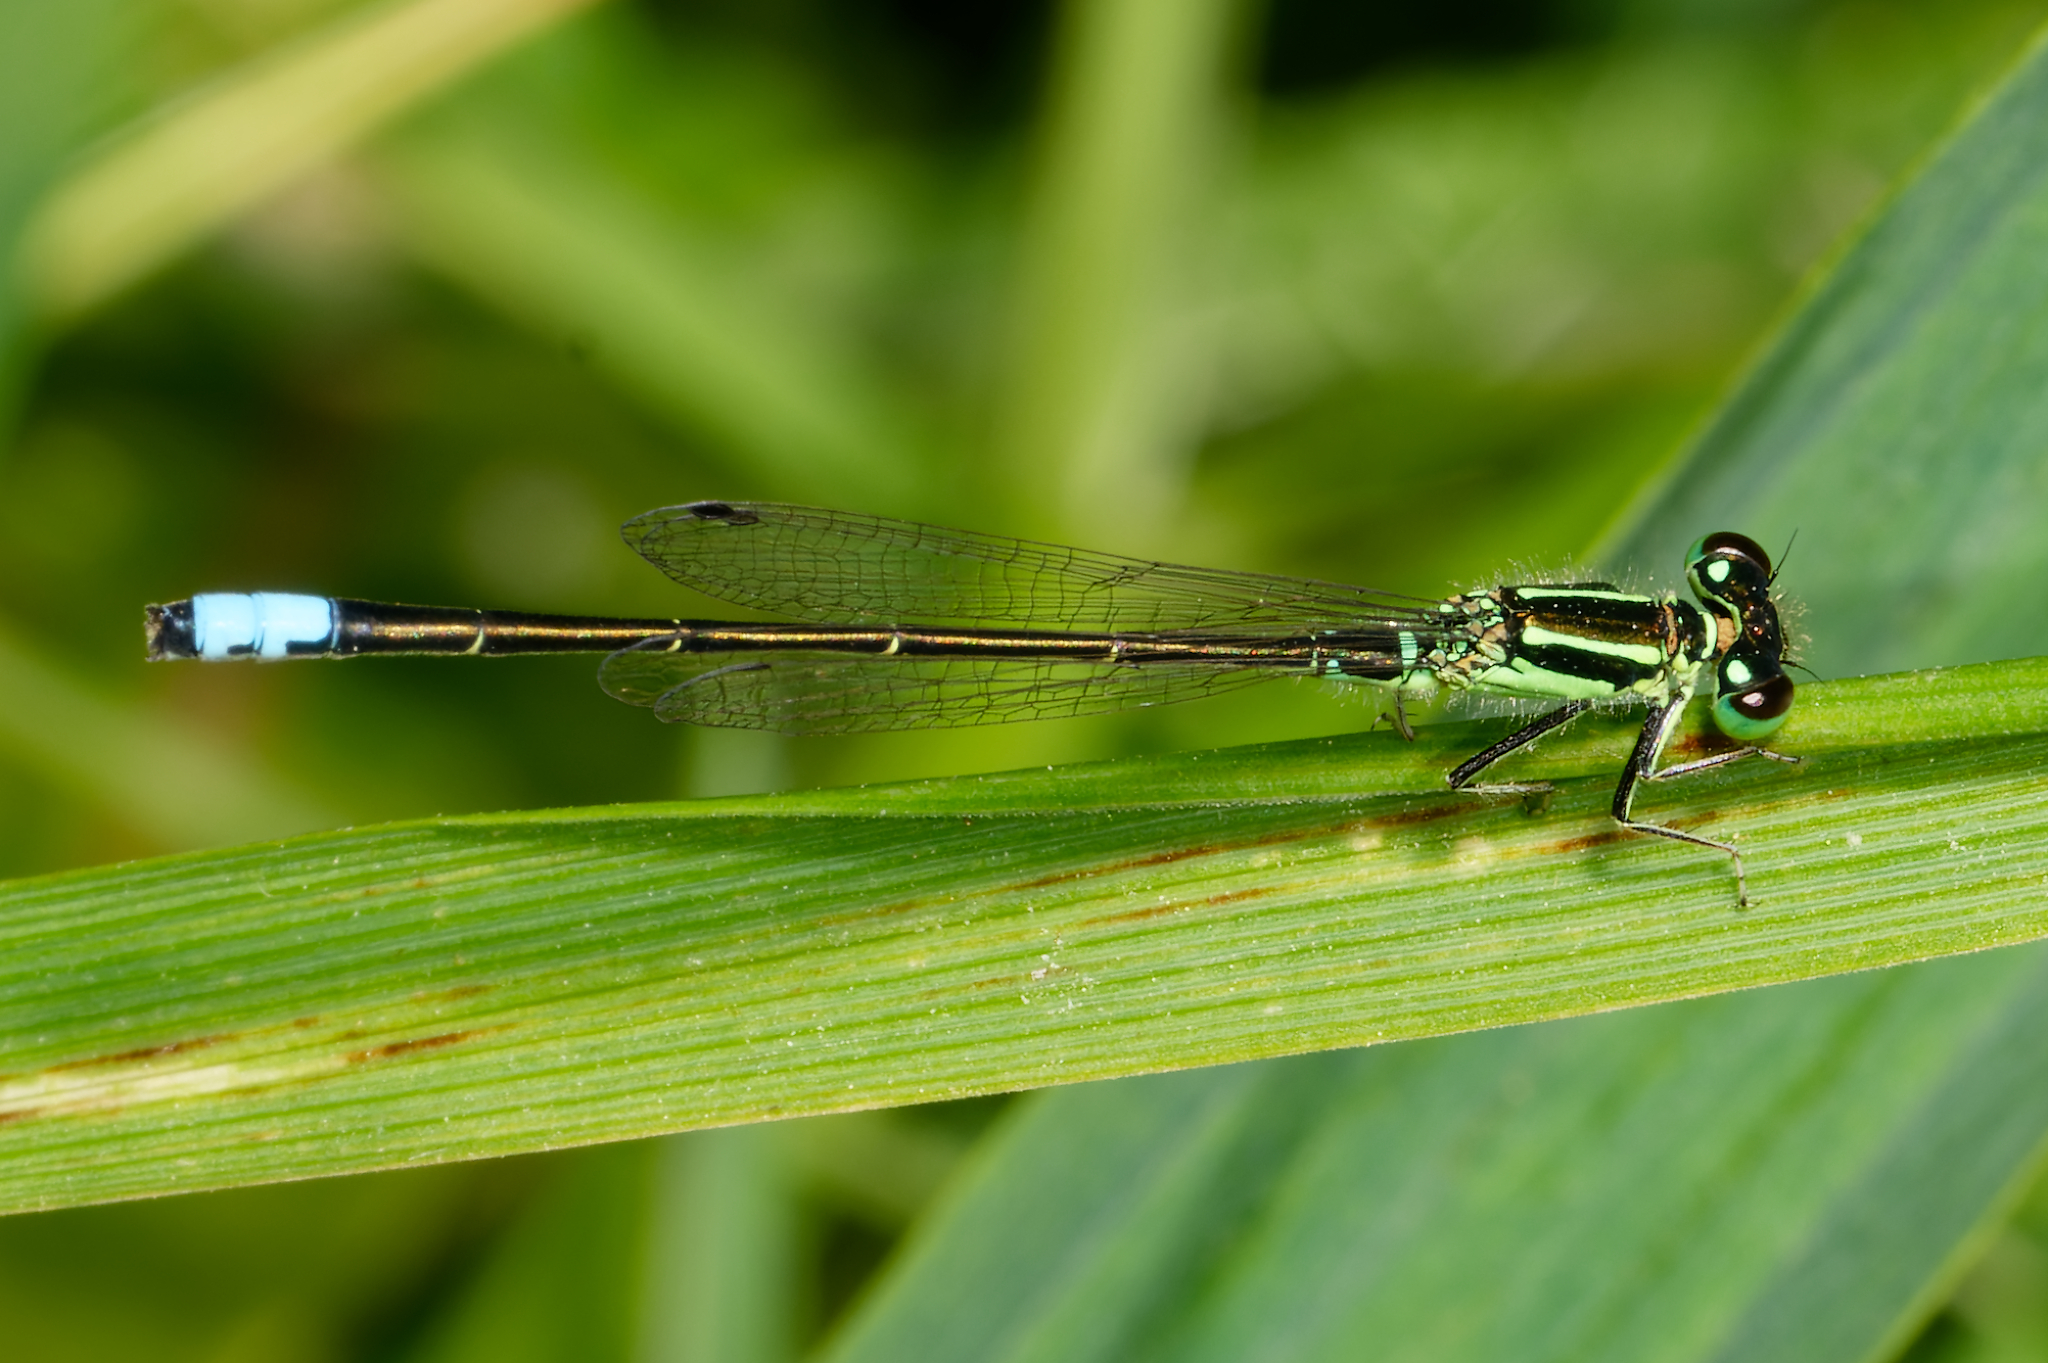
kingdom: Animalia
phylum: Arthropoda
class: Insecta
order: Odonata
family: Coenagrionidae
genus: Ischnura
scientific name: Ischnura verticalis
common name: Eastern forktail
